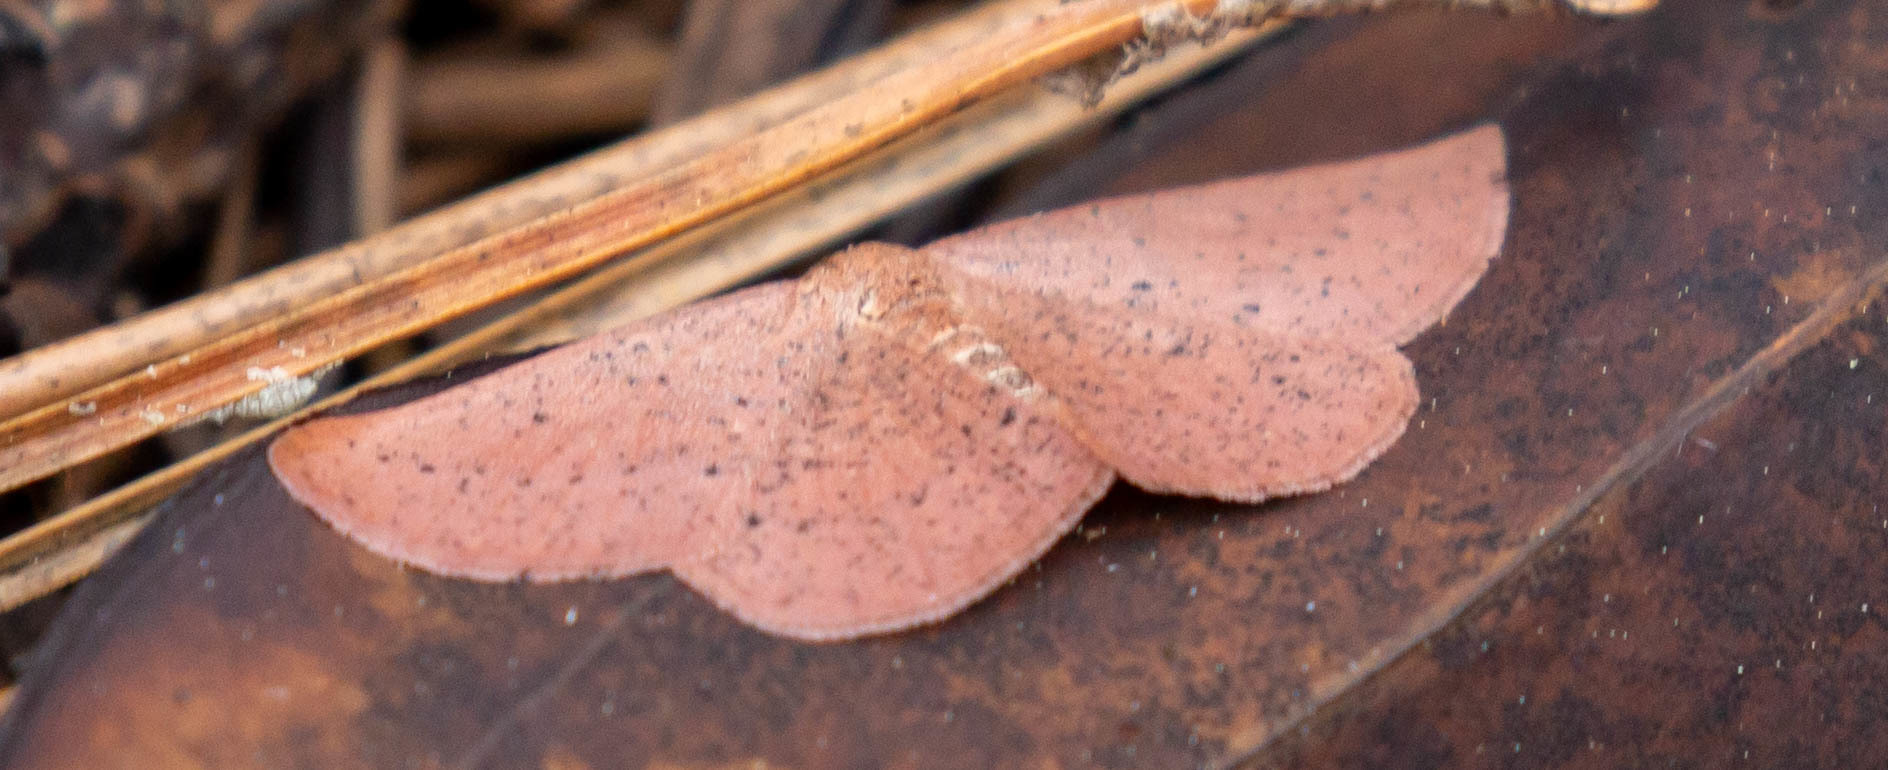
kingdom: Animalia
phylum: Arthropoda
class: Insecta
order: Lepidoptera
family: Geometridae
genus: Episemasia
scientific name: Episemasia solitaria
